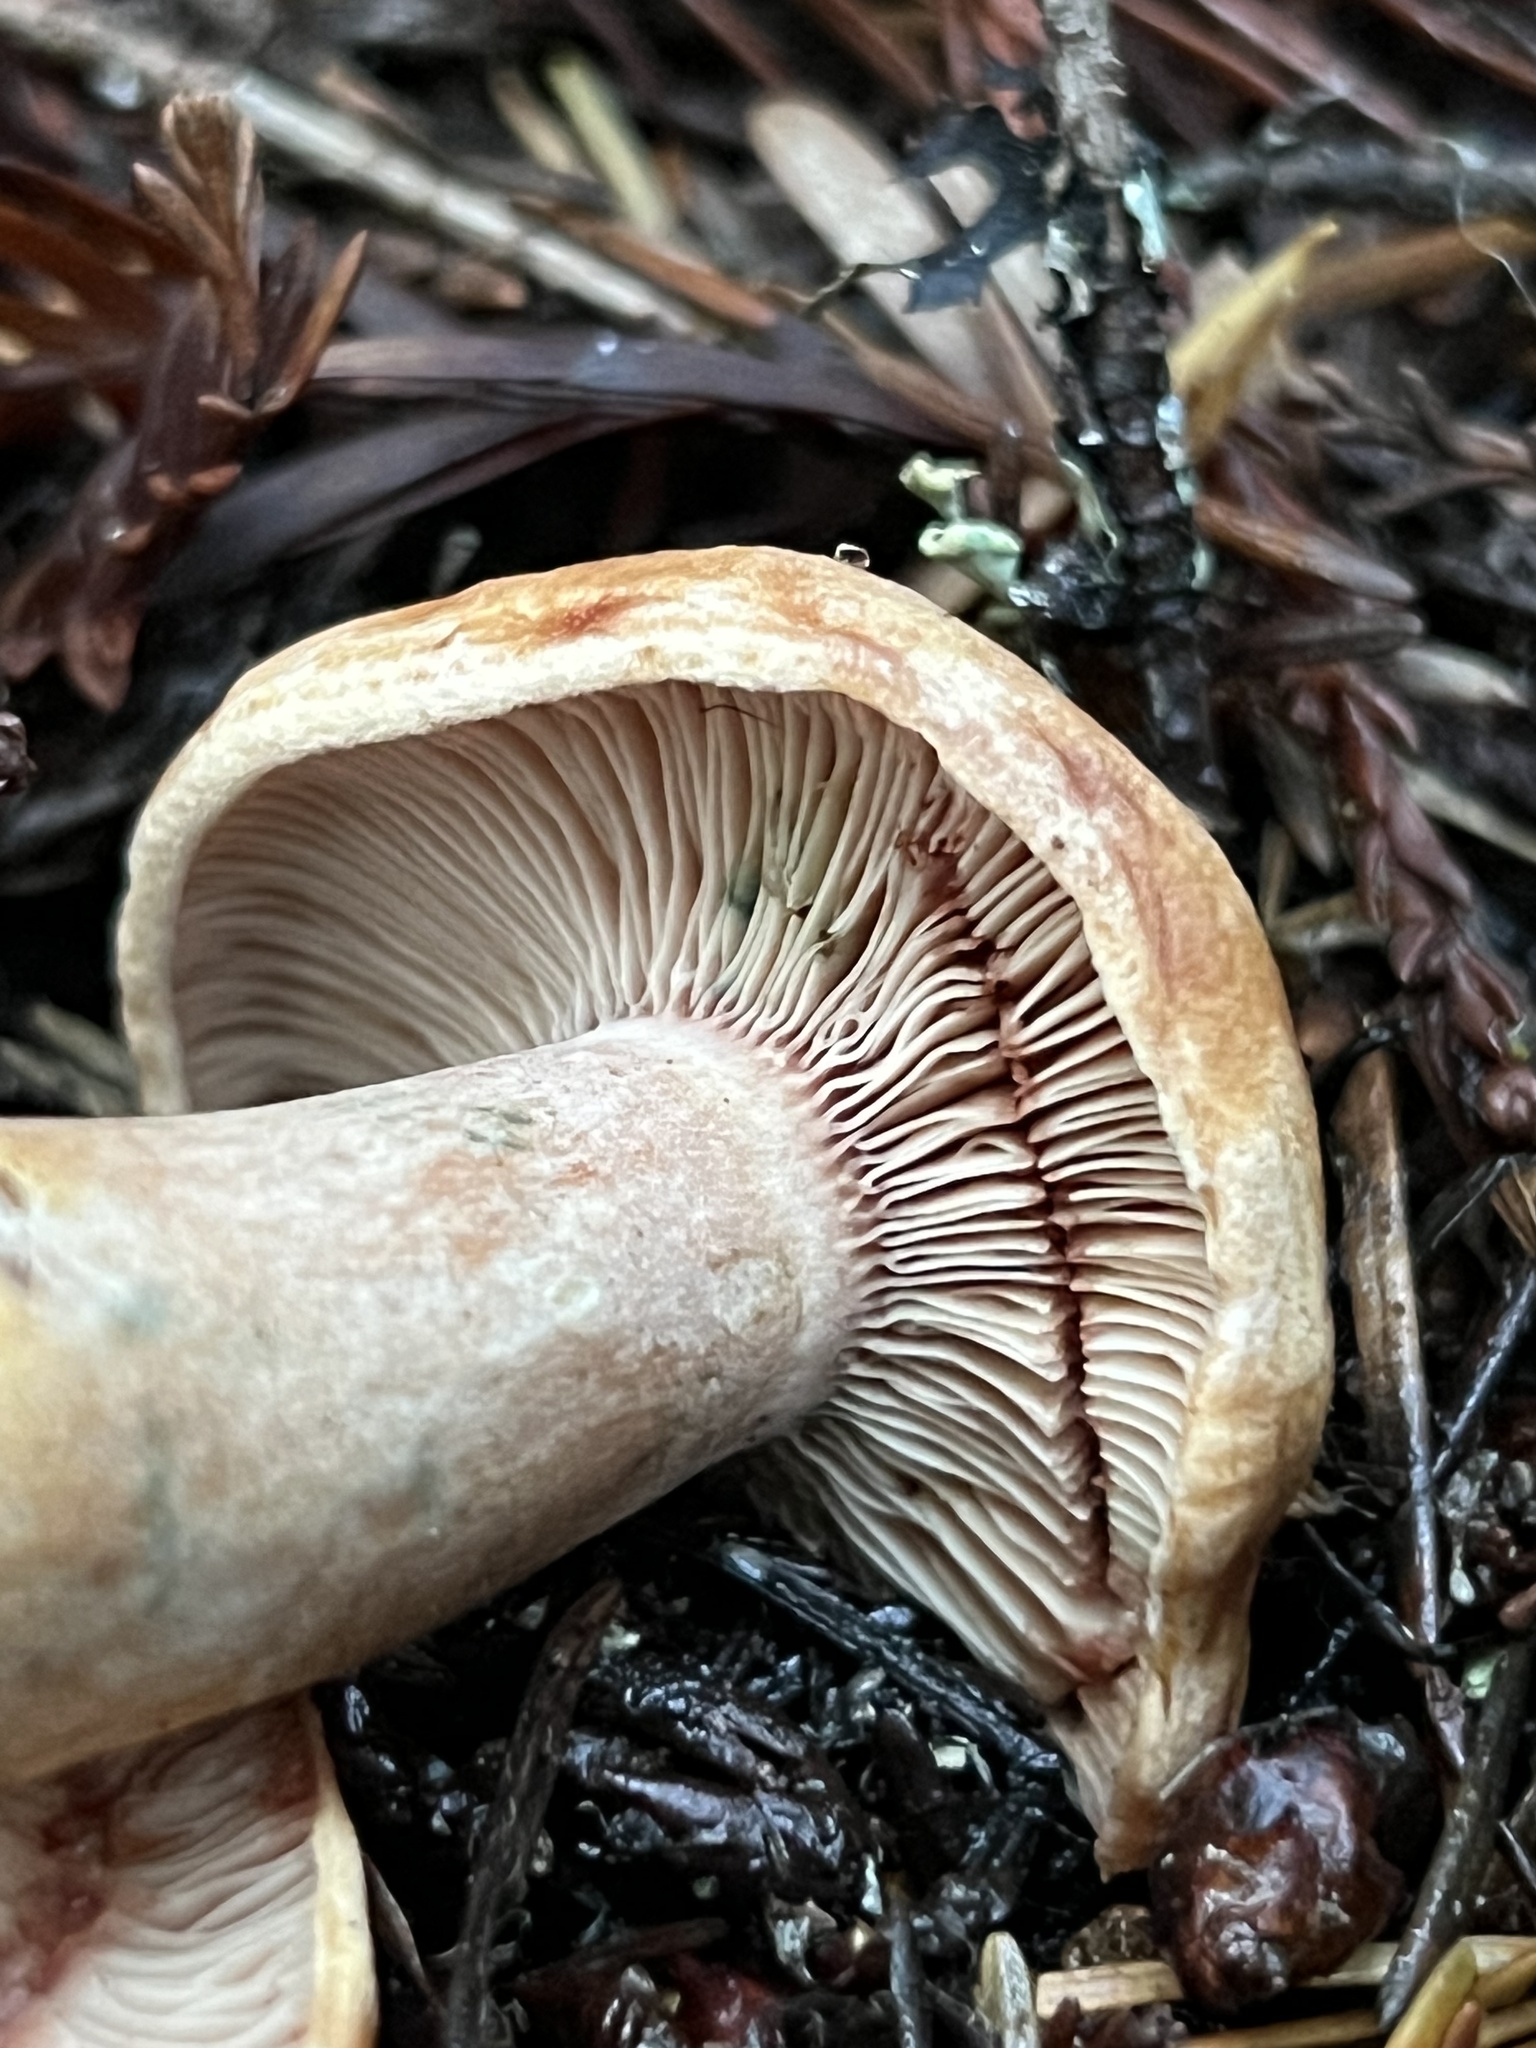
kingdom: Fungi
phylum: Basidiomycota
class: Agaricomycetes
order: Russulales
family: Russulaceae
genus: Lactarius
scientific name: Lactarius rubrilacteus
